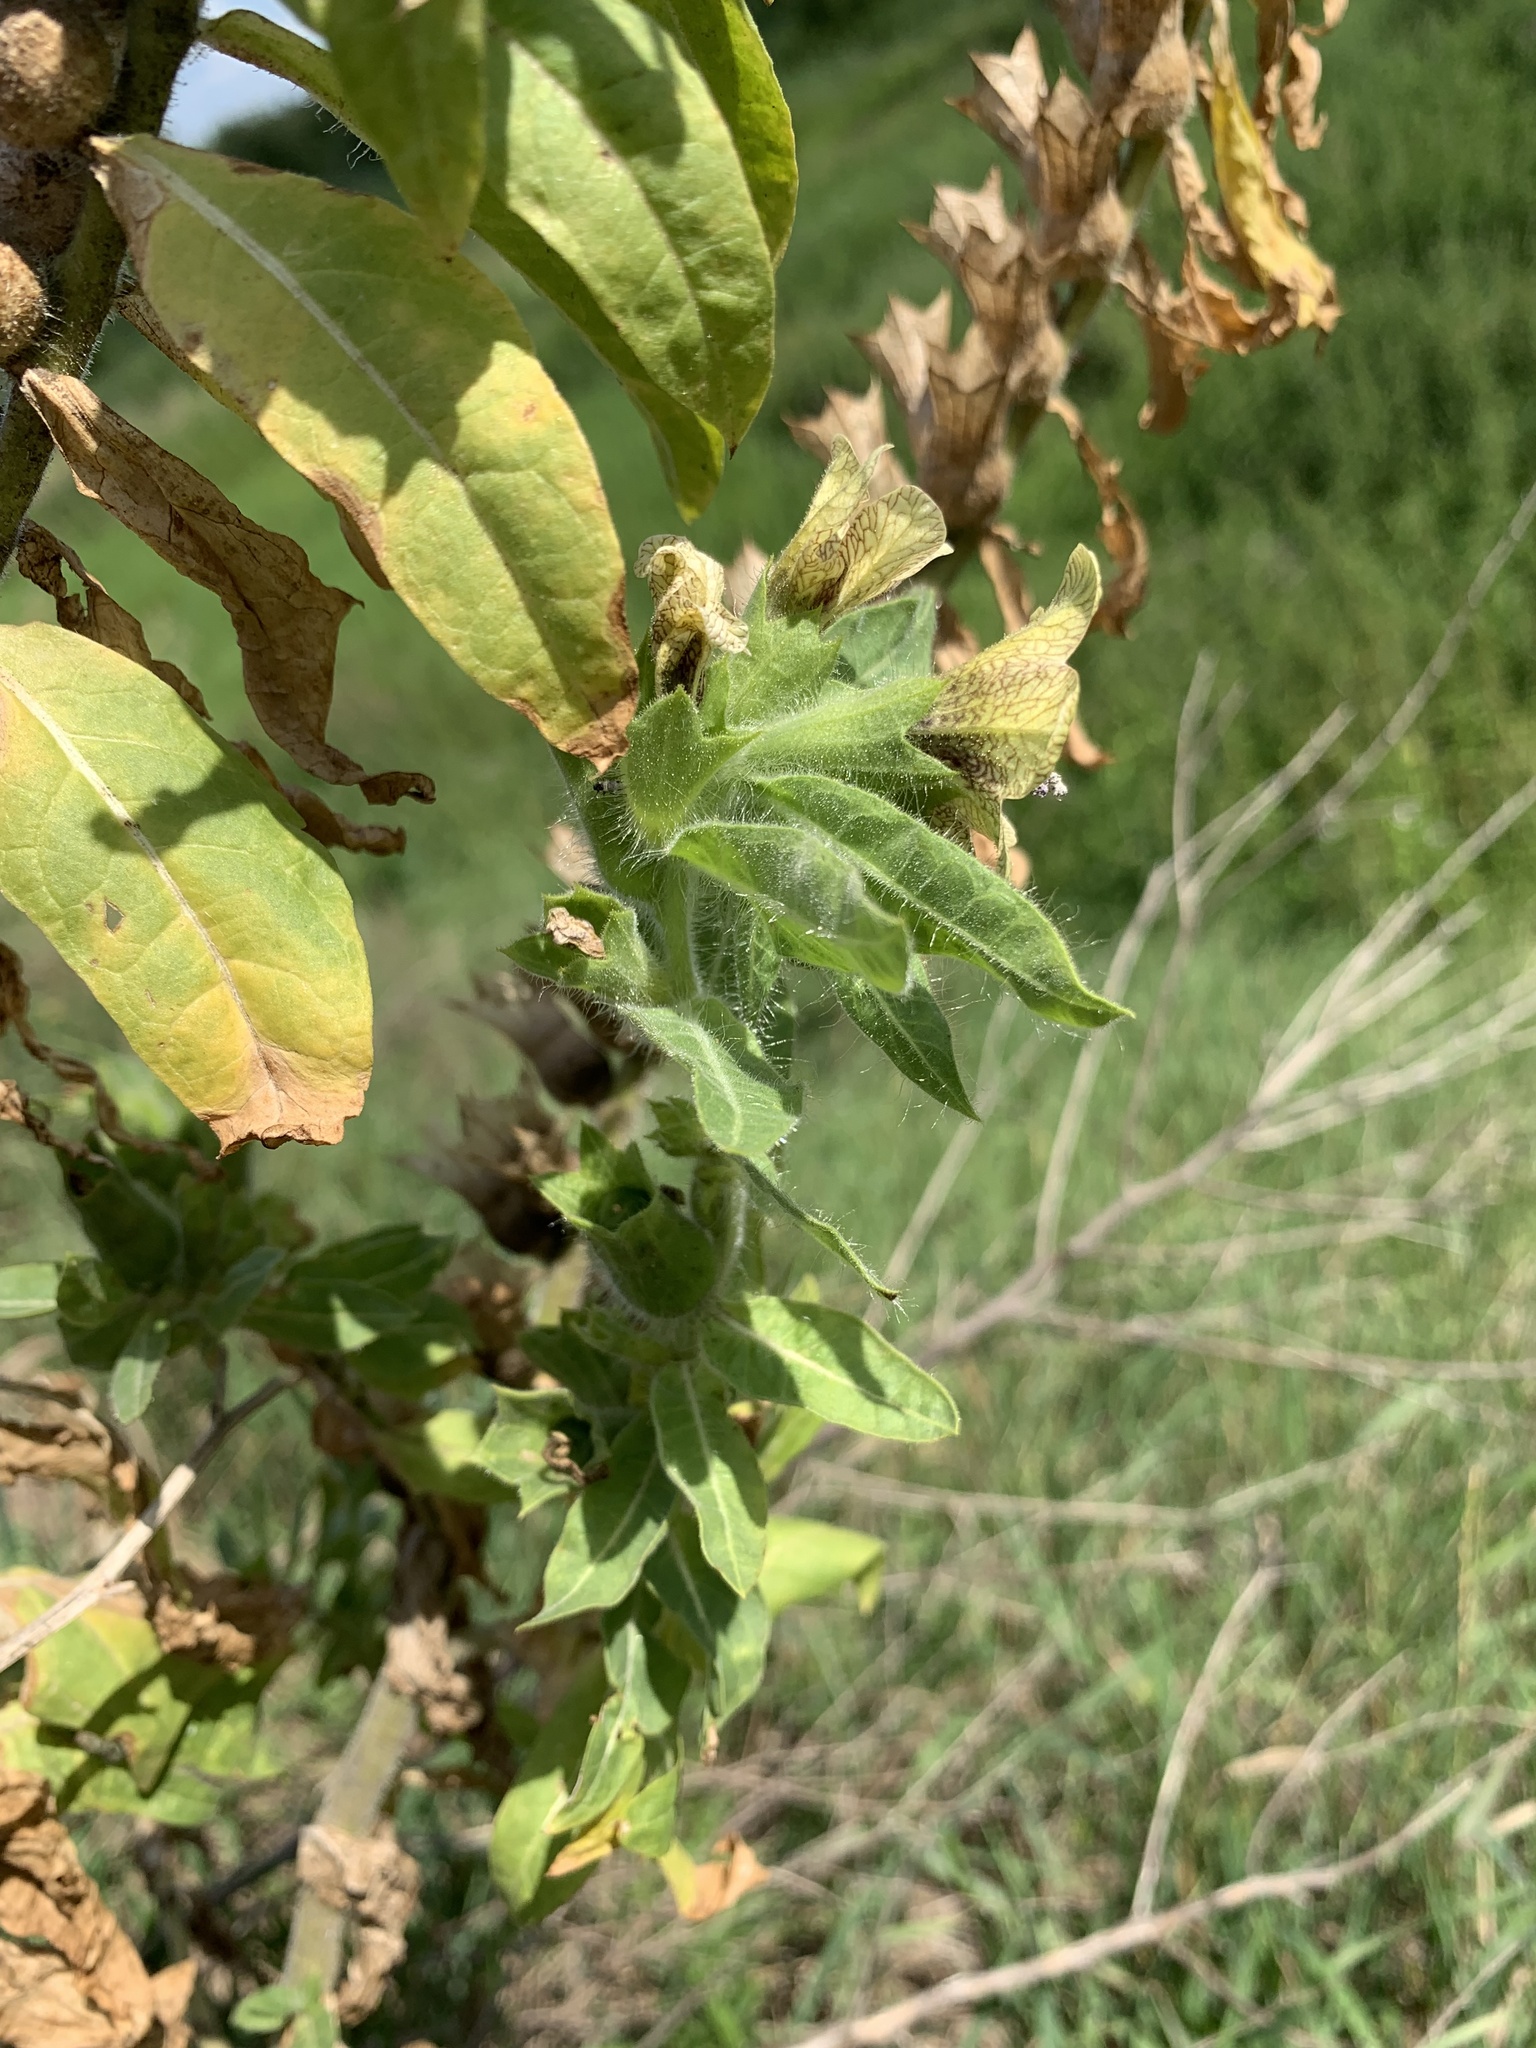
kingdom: Plantae
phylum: Tracheophyta
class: Magnoliopsida
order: Solanales
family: Solanaceae
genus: Hyoscyamus
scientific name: Hyoscyamus niger
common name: Henbane
